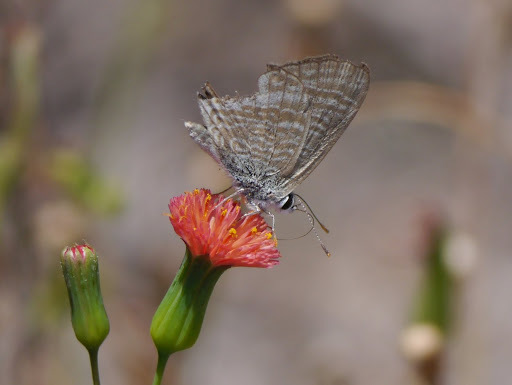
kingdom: Animalia
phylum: Arthropoda
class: Insecta
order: Lepidoptera
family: Lycaenidae
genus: Lampides
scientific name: Lampides boeticus
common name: Long-tailed blue
